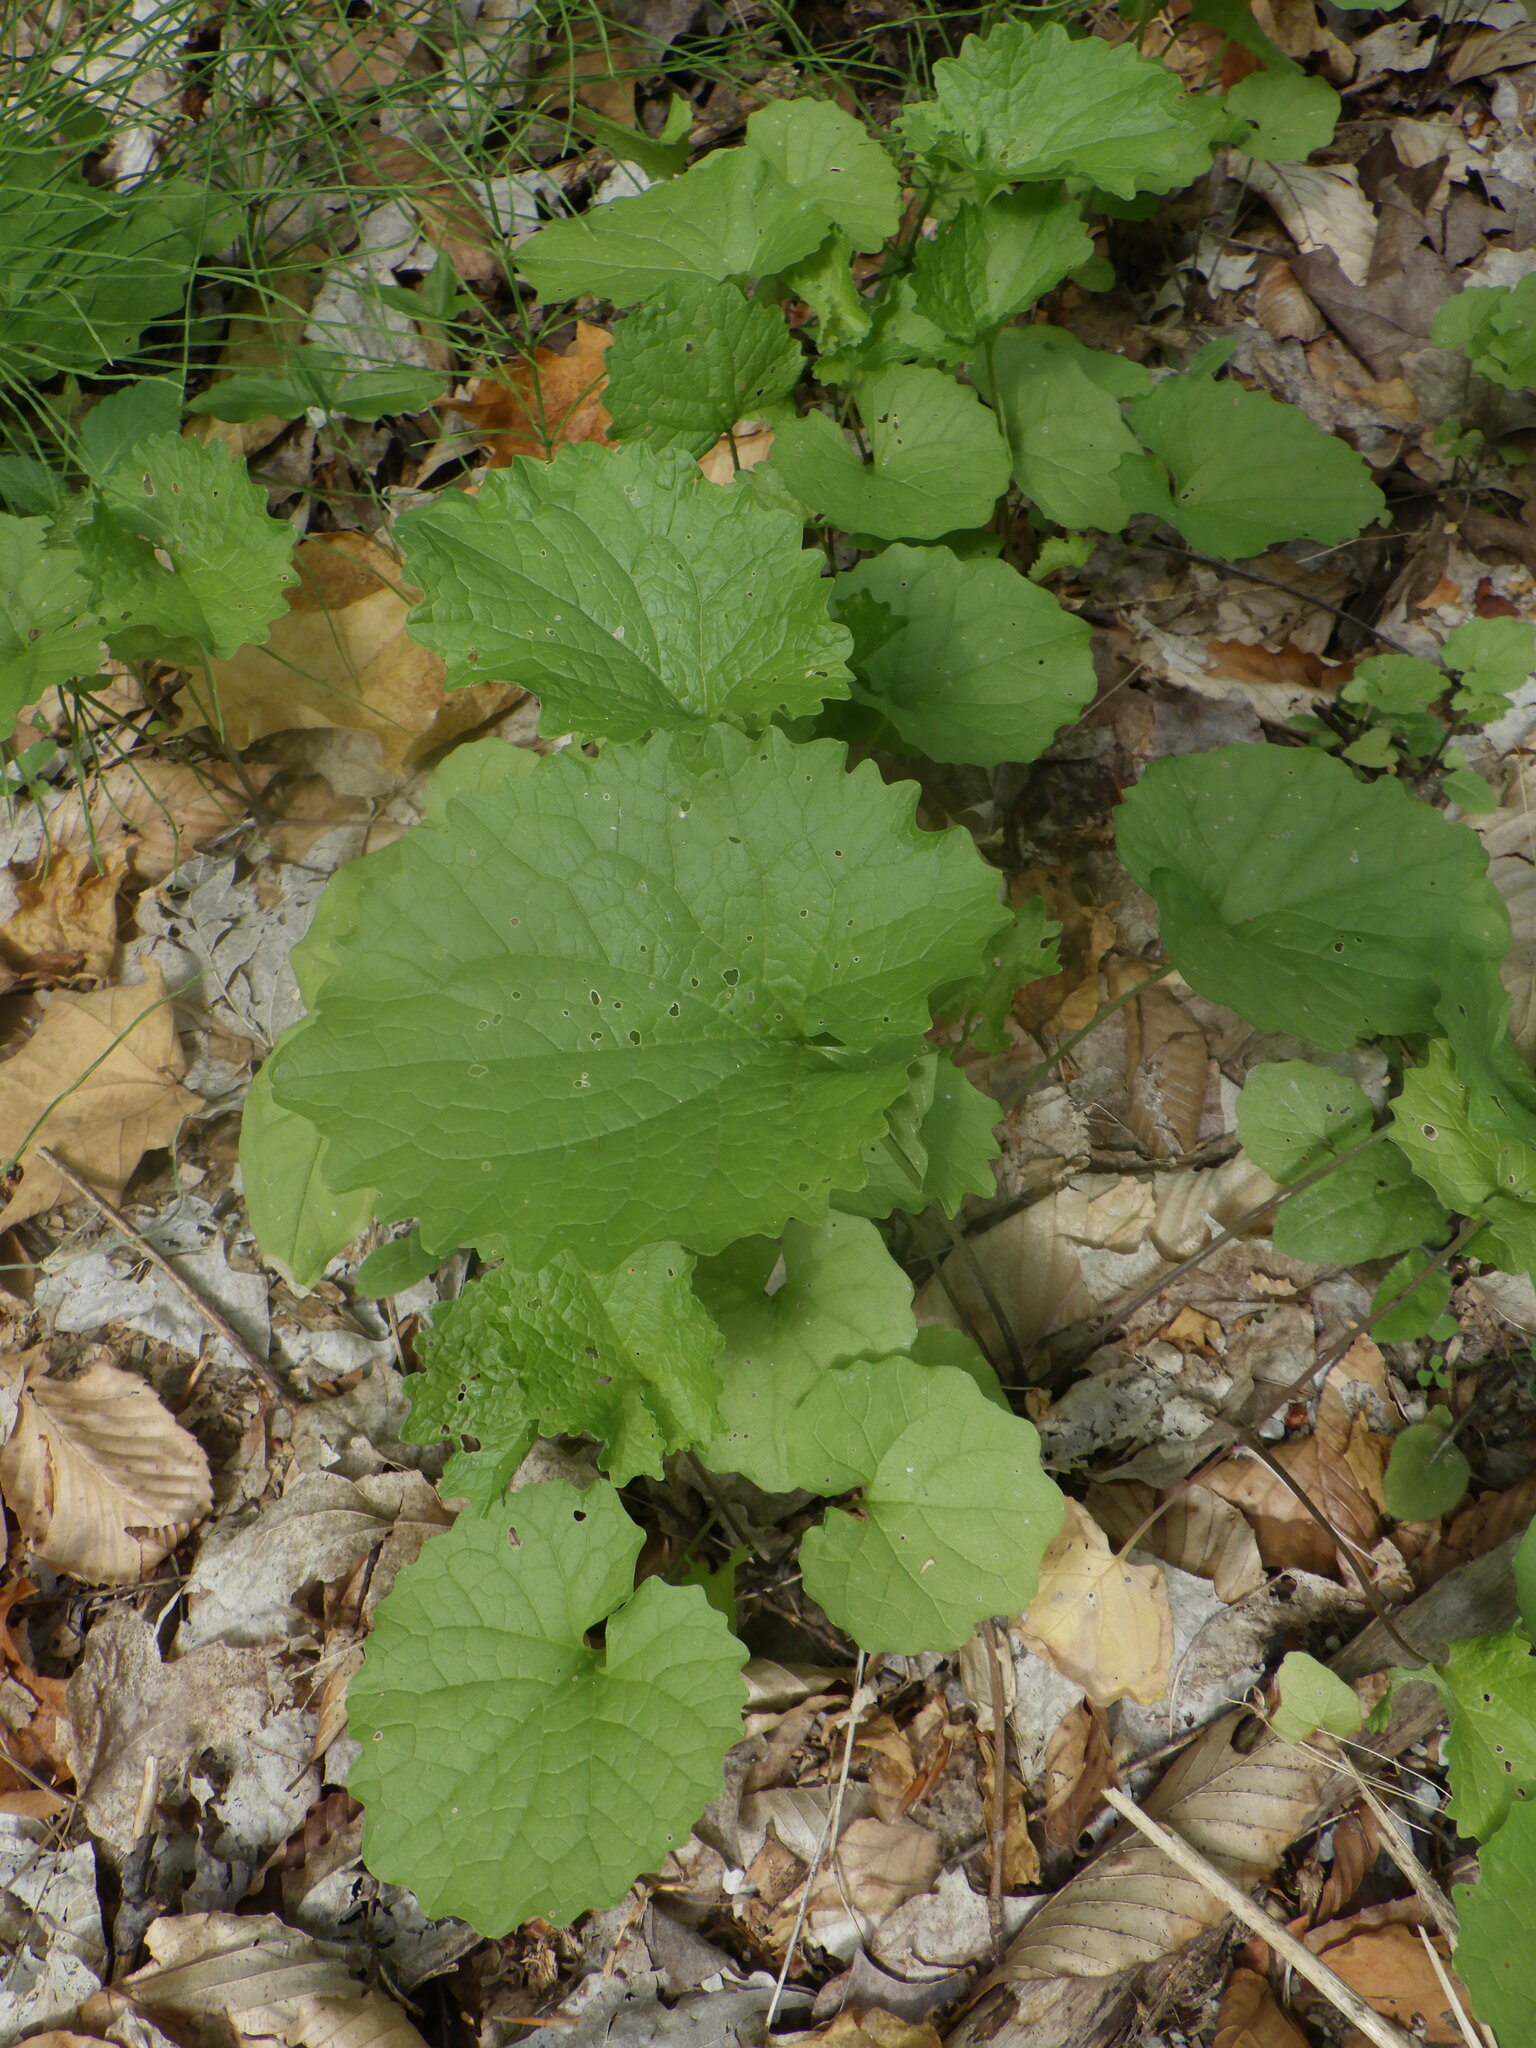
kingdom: Plantae
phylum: Tracheophyta
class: Magnoliopsida
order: Brassicales
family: Brassicaceae
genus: Alliaria
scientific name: Alliaria petiolata
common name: Garlic mustard
